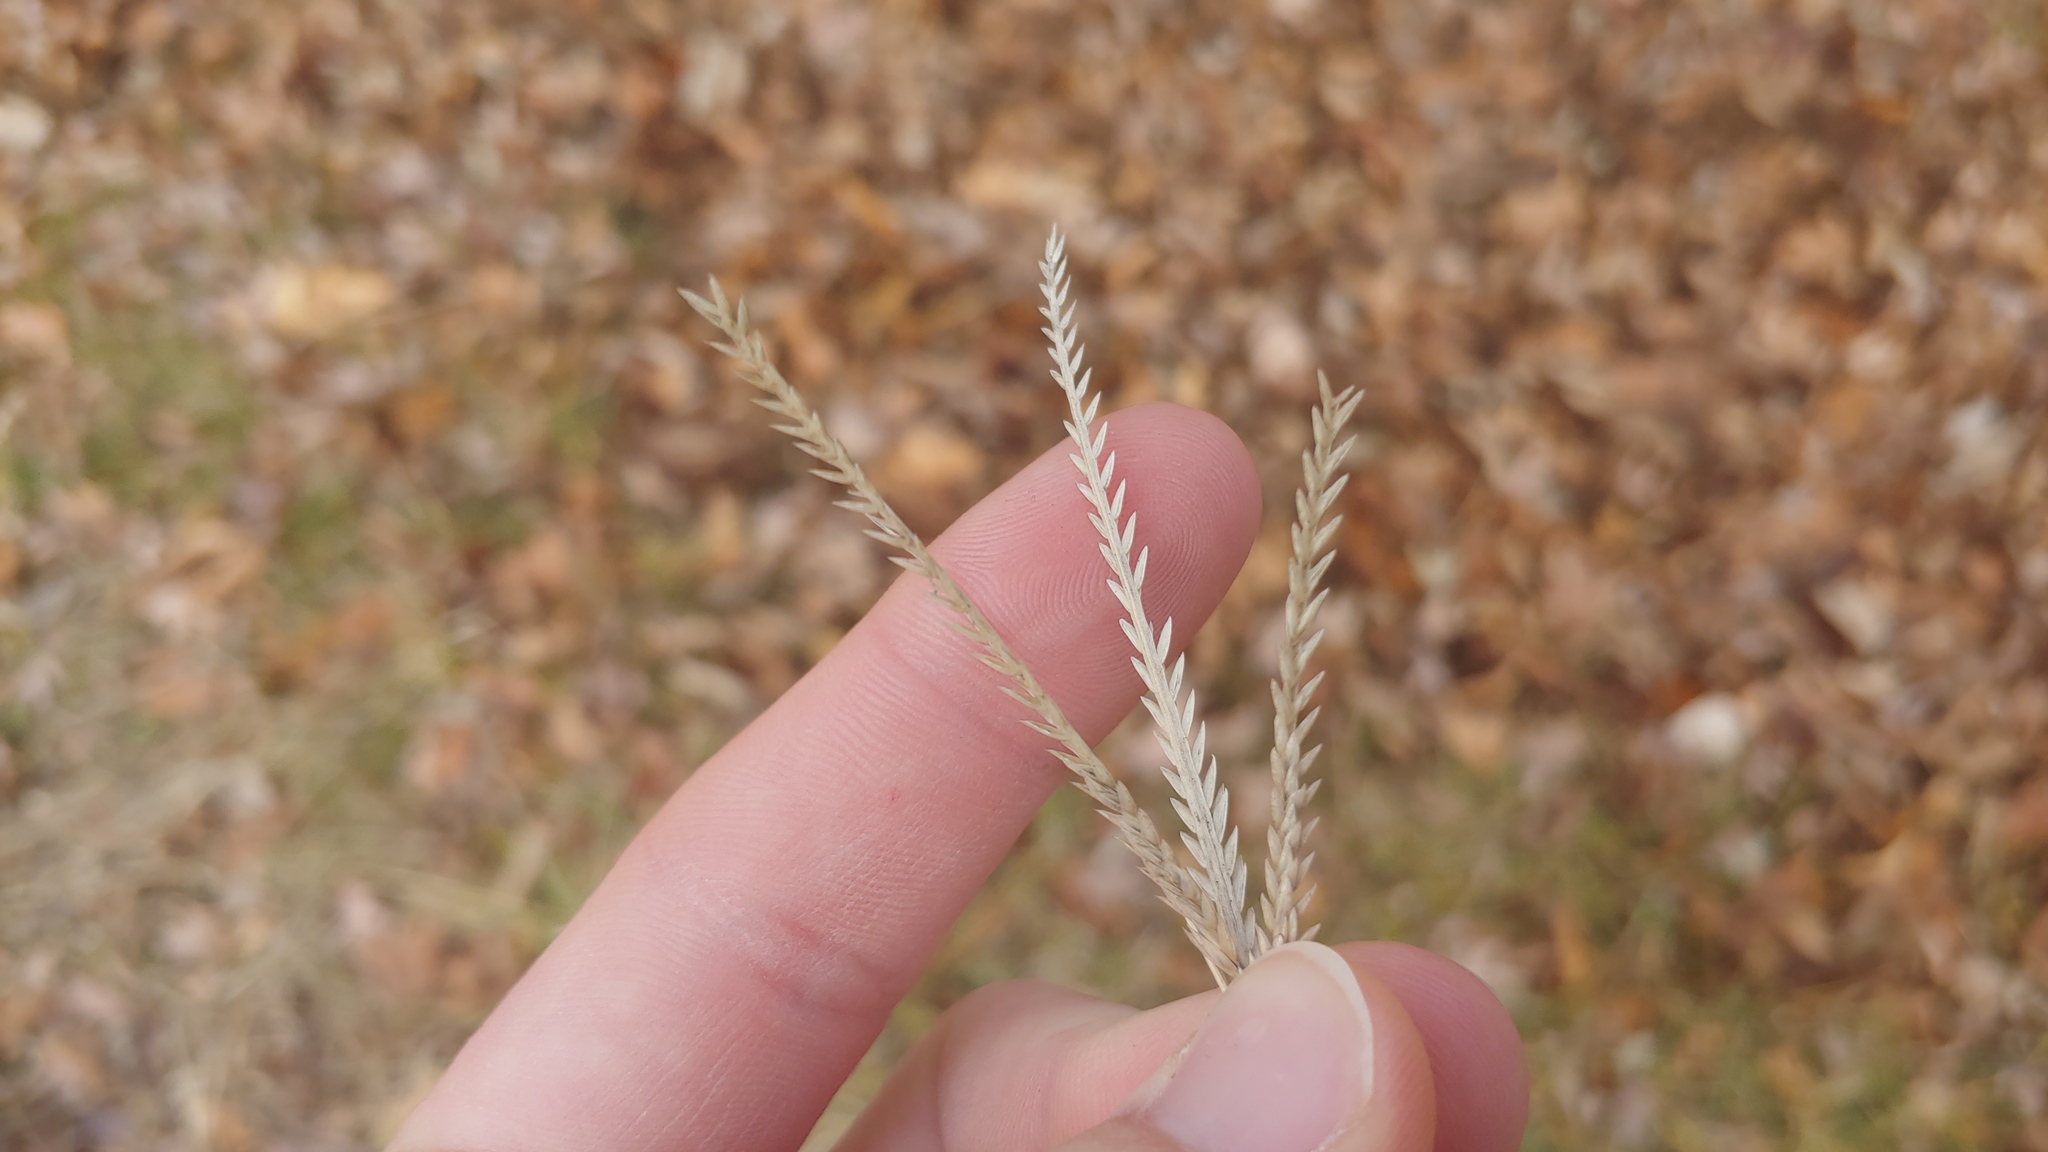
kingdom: Plantae
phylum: Tracheophyta
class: Liliopsida
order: Poales
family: Poaceae
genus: Eleusine
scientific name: Eleusine indica
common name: Yard-grass
